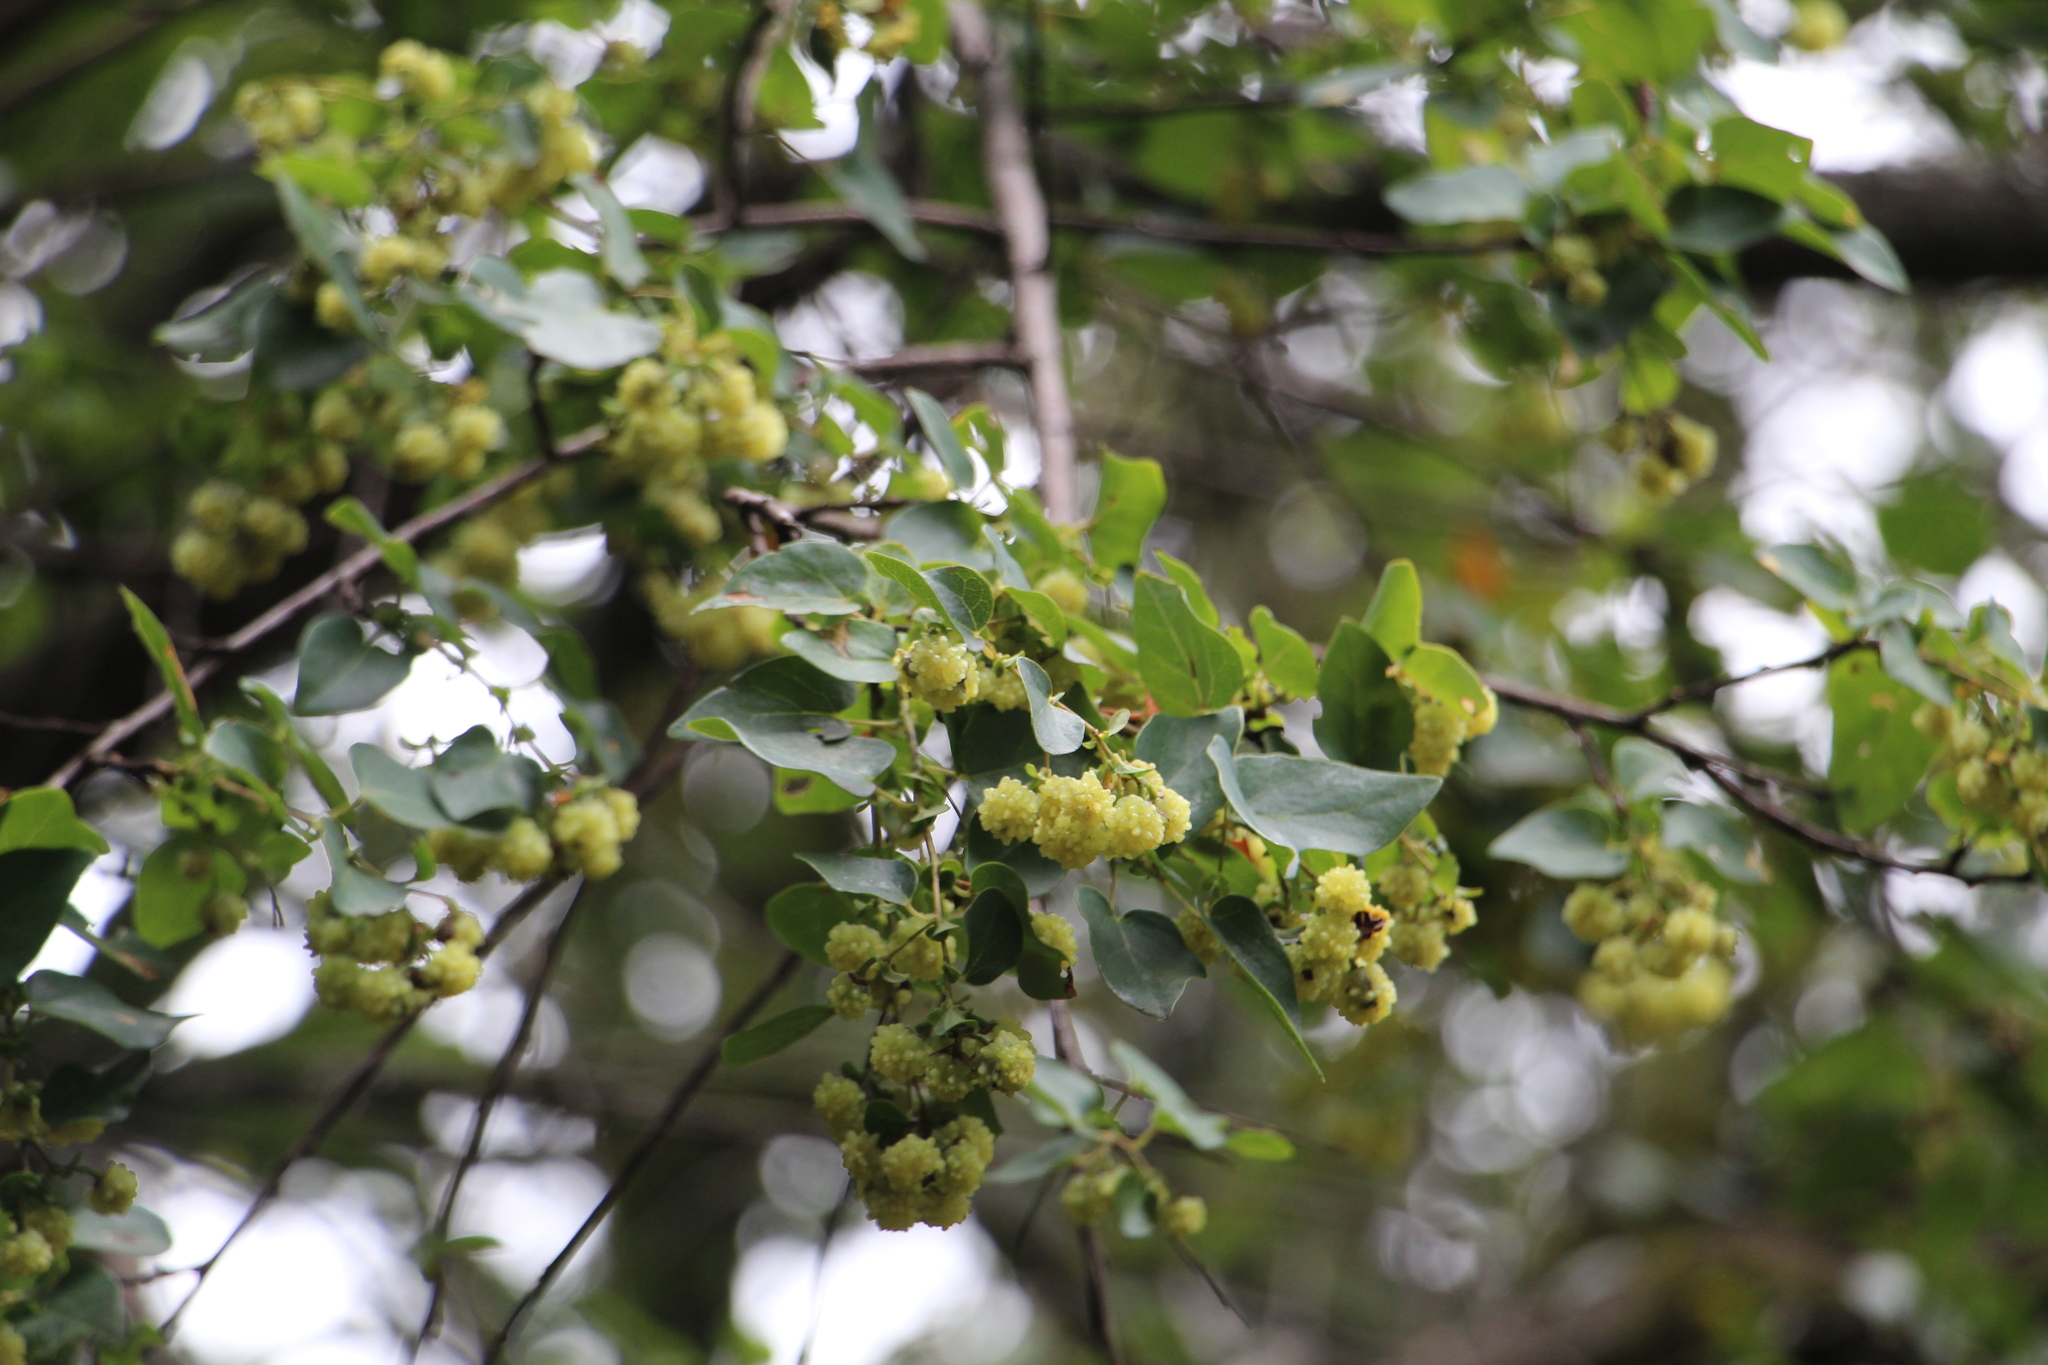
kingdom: Plantae
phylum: Tracheophyta
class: Magnoliopsida
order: Oxalidales
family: Elaeocarpaceae
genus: Vallea
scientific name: Vallea stipularis
